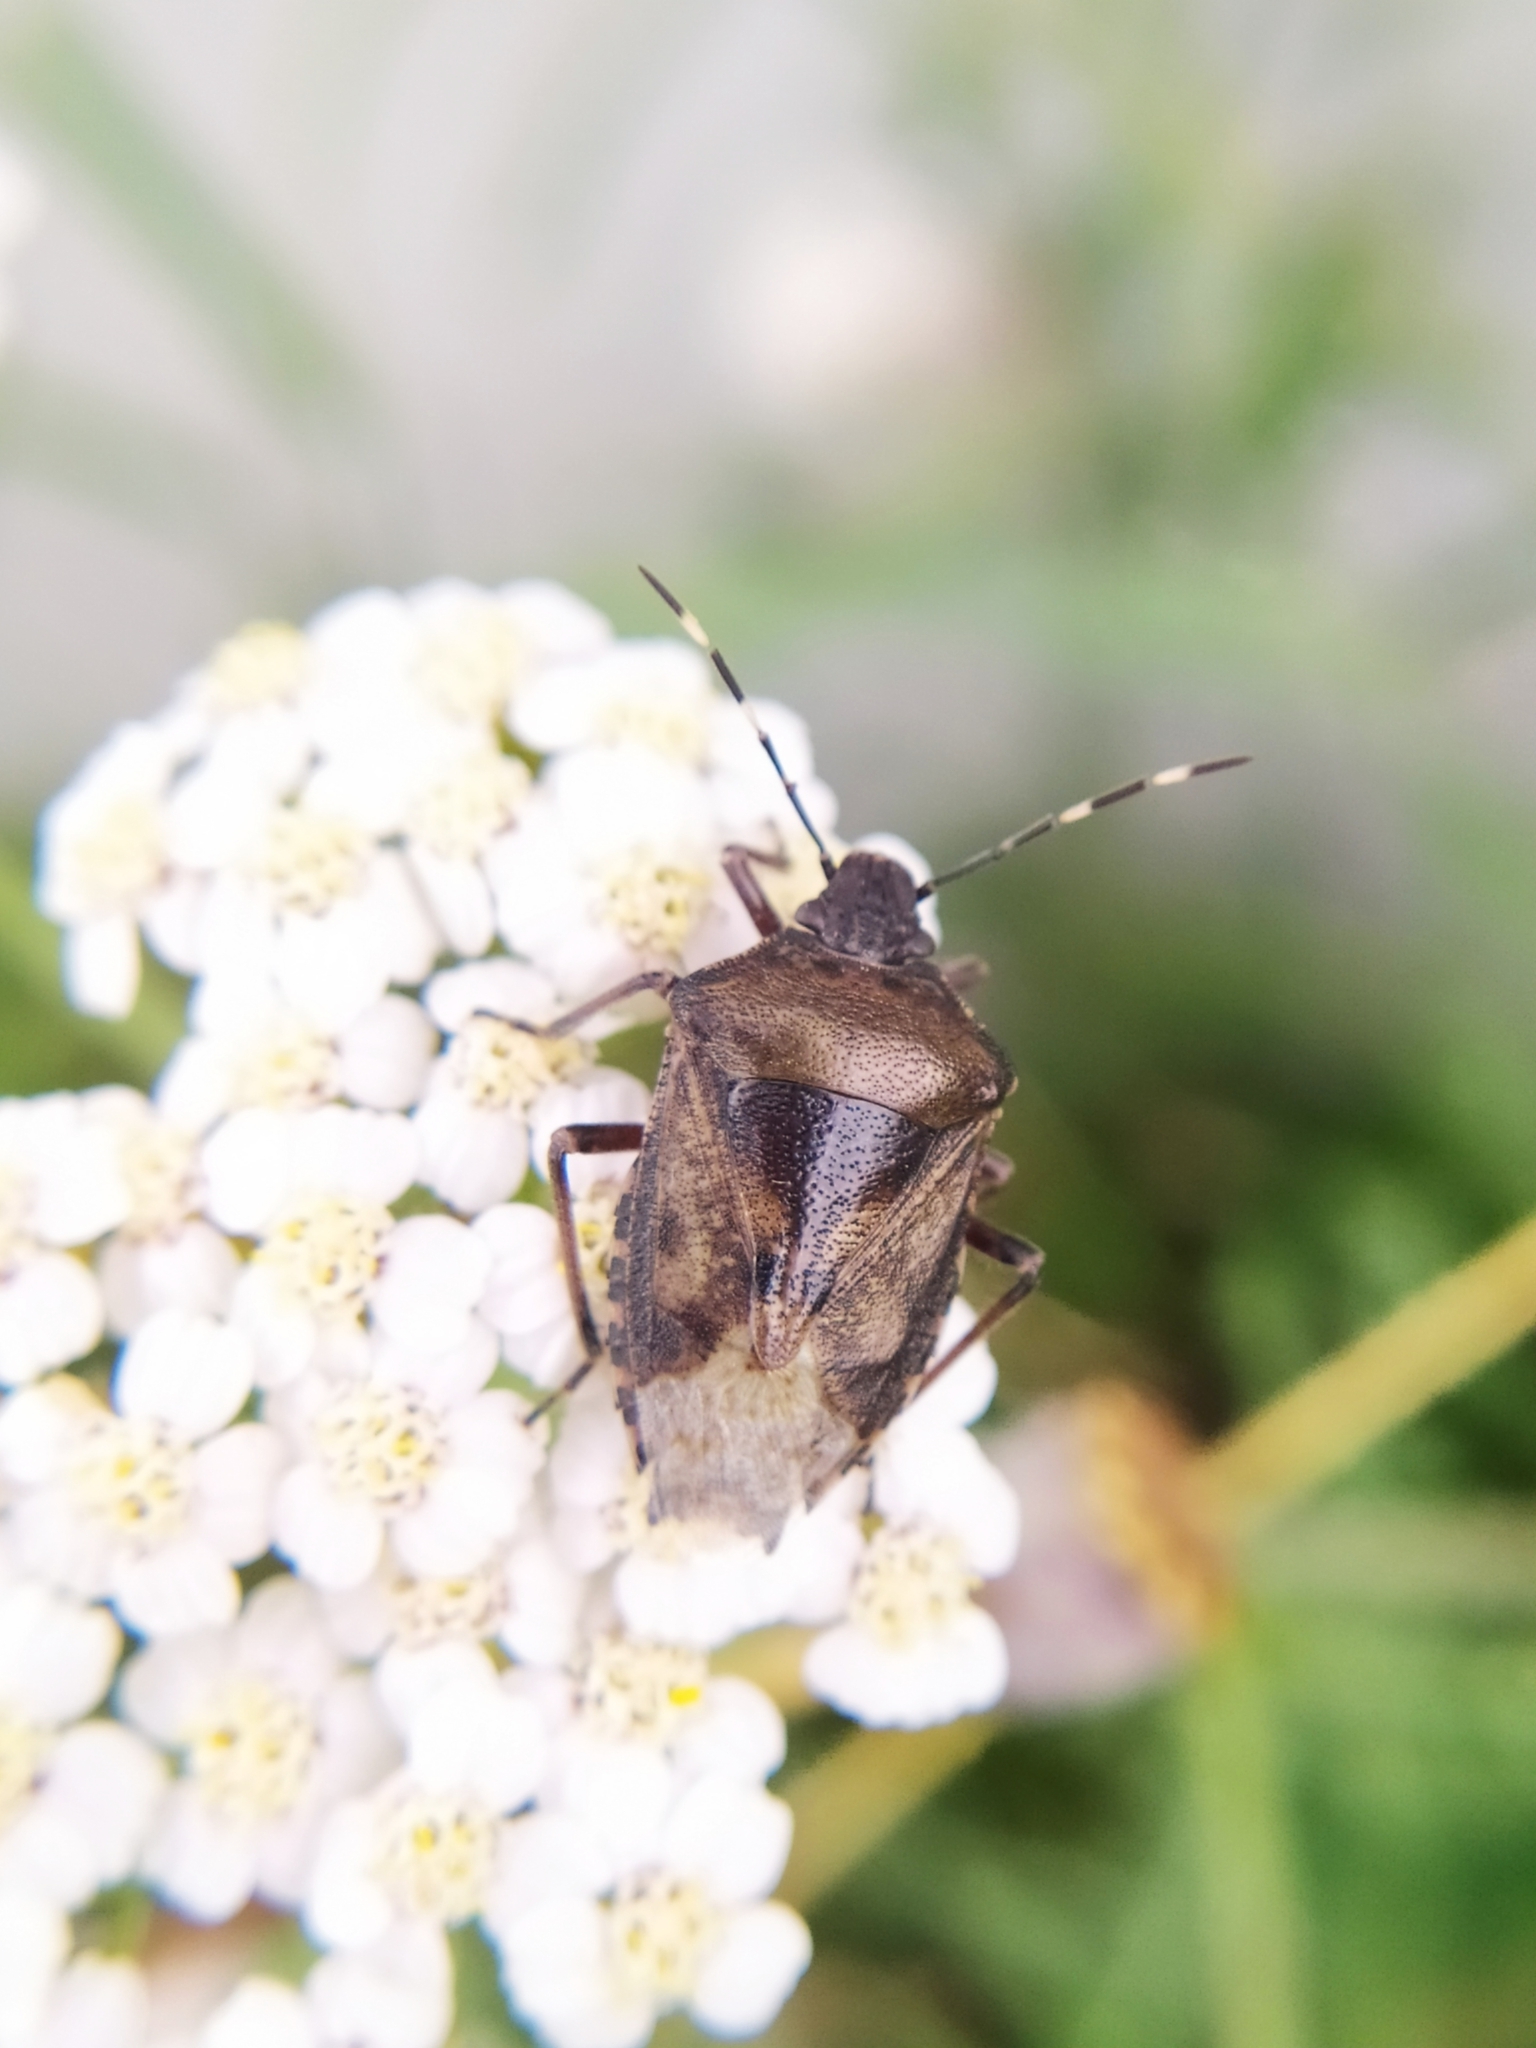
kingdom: Animalia
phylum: Arthropoda
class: Insecta
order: Hemiptera
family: Pentatomidae
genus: Rhaphigaster
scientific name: Rhaphigaster nebulosa
